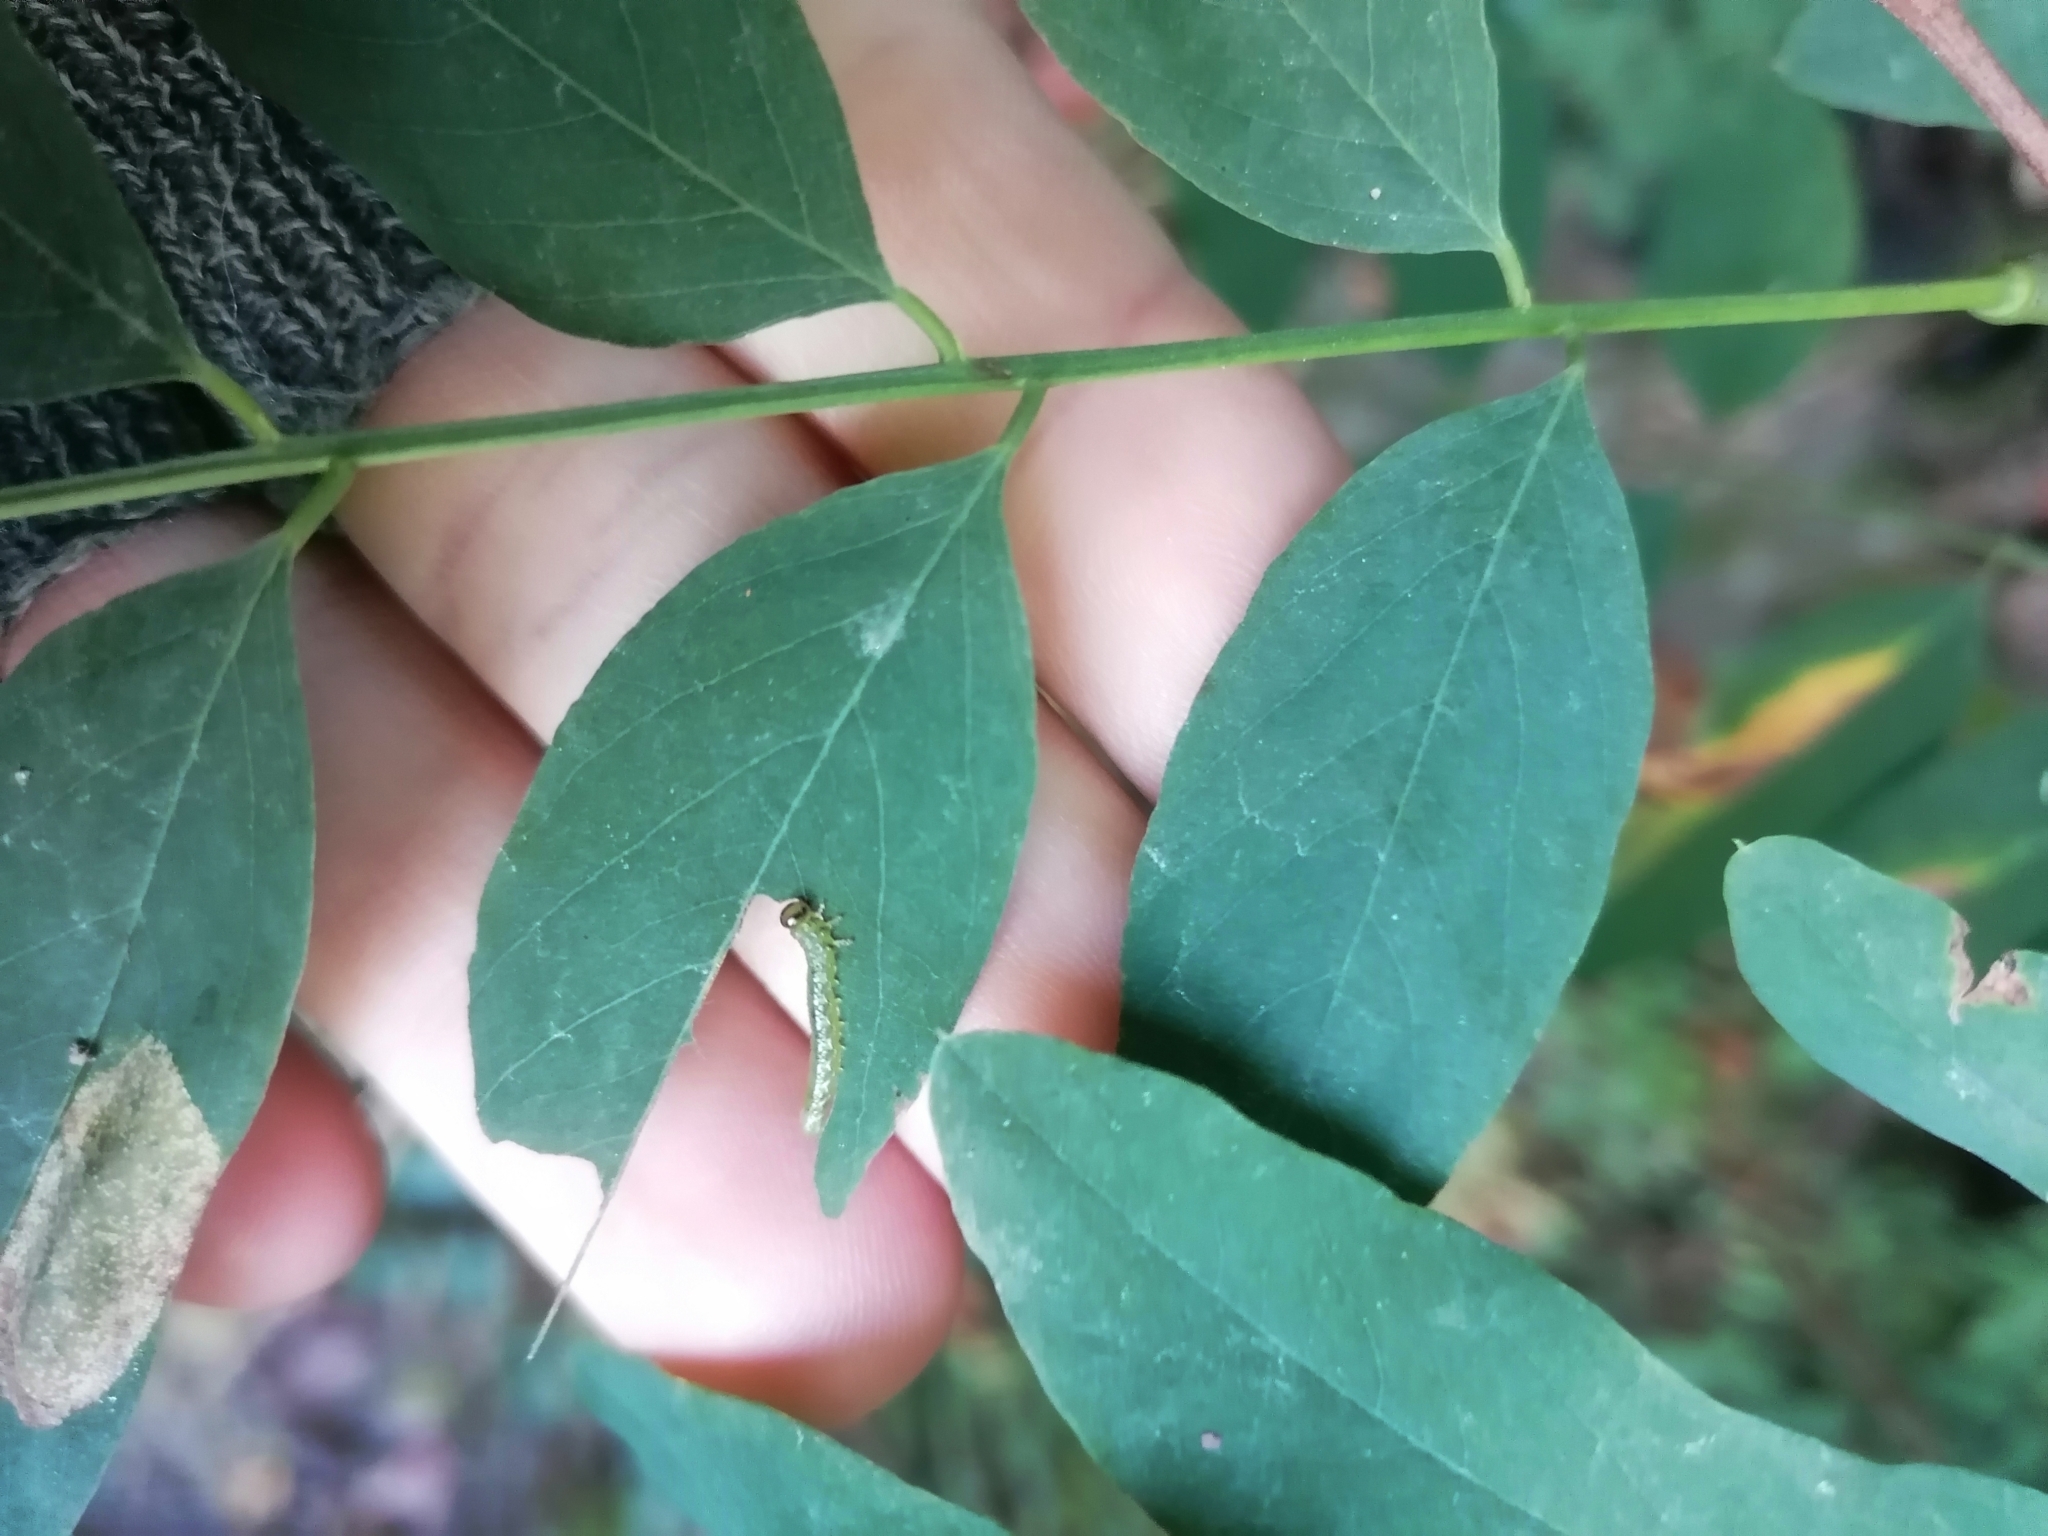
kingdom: Animalia
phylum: Arthropoda
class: Insecta
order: Hymenoptera
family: Tenthredinidae
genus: Euura
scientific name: Euura tibialis
